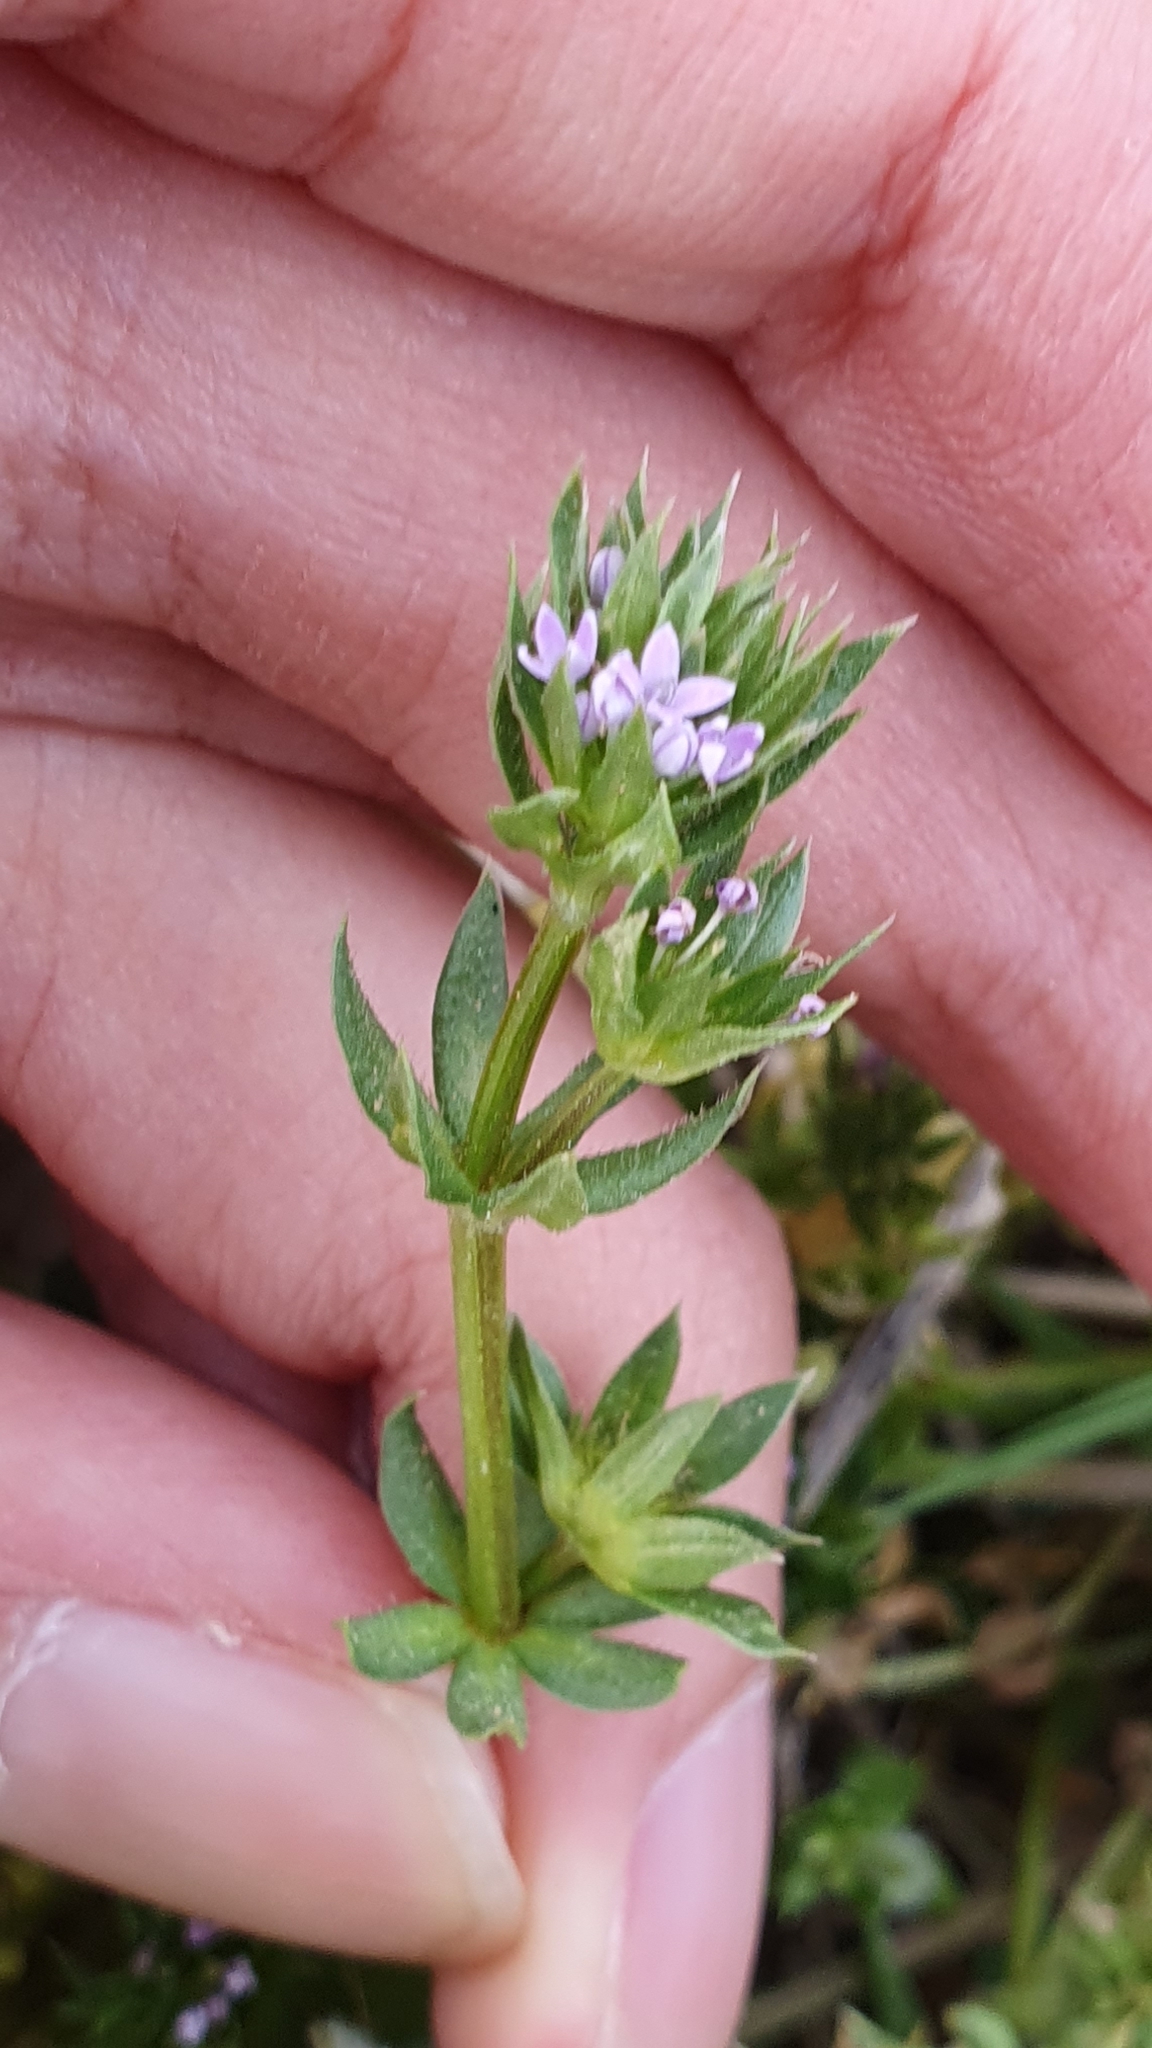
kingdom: Plantae
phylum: Tracheophyta
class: Magnoliopsida
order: Gentianales
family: Rubiaceae
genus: Sherardia
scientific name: Sherardia arvensis
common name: Field madder
